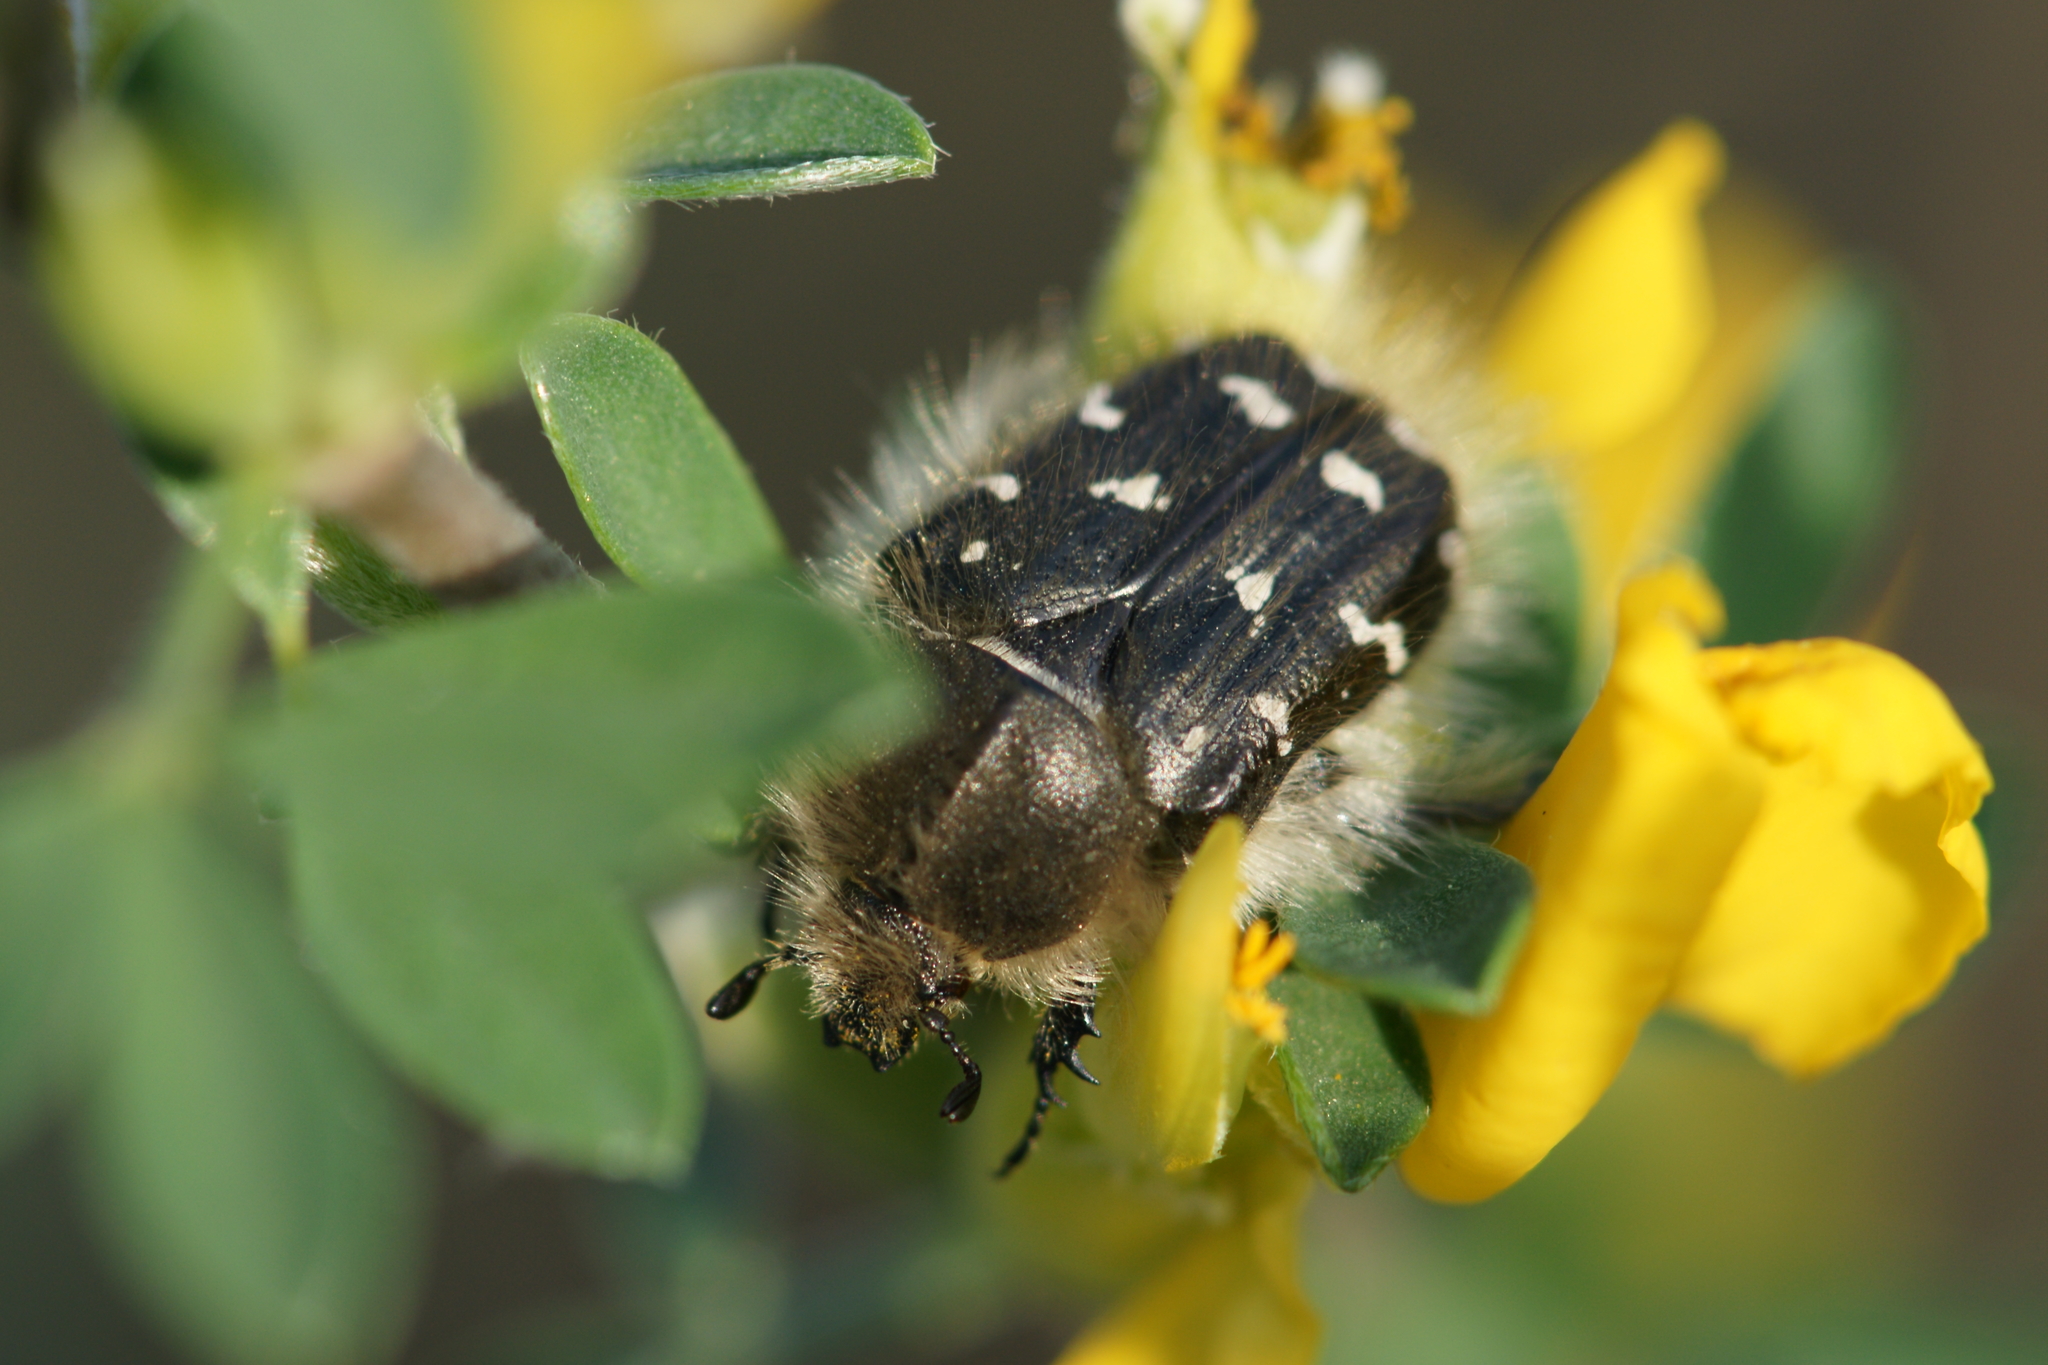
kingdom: Animalia
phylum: Arthropoda
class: Insecta
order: Coleoptera
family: Scarabaeidae
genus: Tropinota
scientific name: Tropinota hirta
